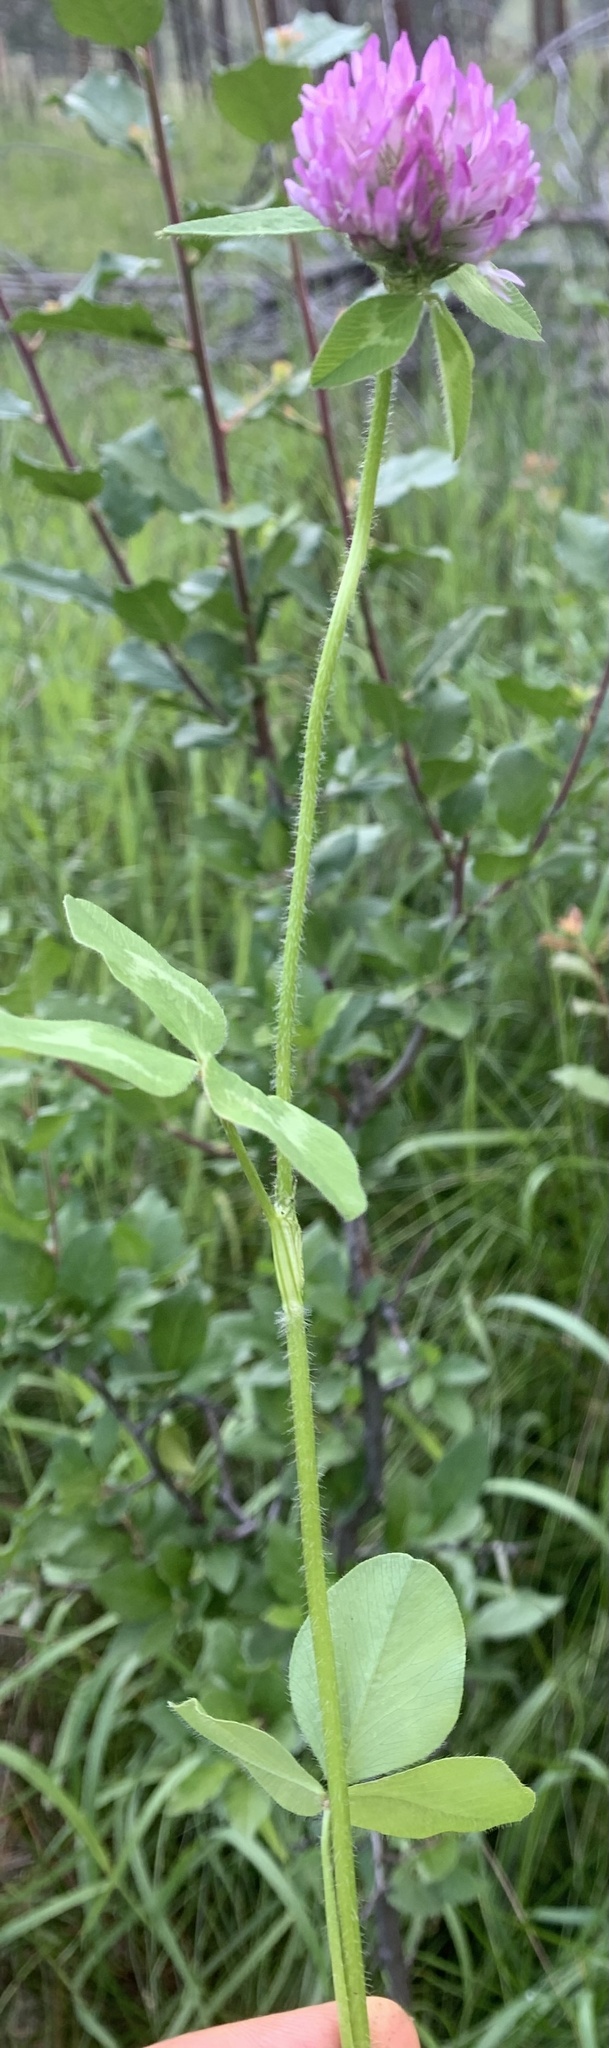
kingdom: Plantae
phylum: Tracheophyta
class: Magnoliopsida
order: Fabales
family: Fabaceae
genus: Trifolium
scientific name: Trifolium pratense
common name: Red clover
